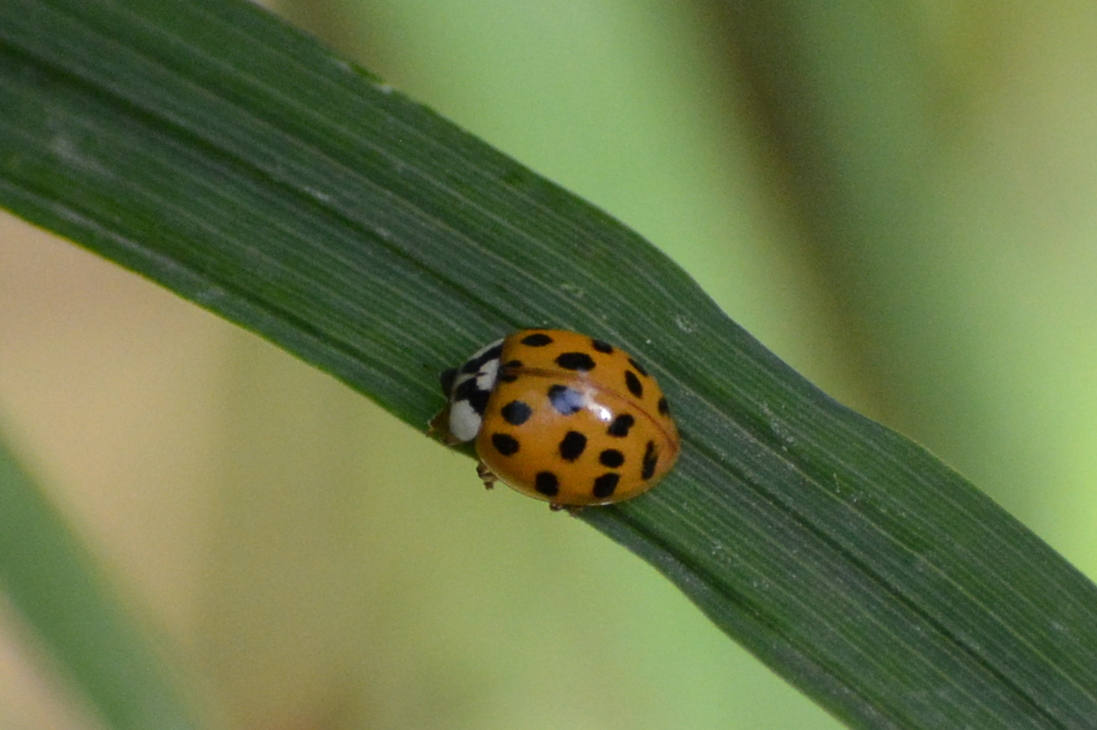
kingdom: Animalia
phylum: Arthropoda
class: Insecta
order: Coleoptera
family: Coccinellidae
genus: Harmonia
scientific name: Harmonia axyridis
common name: Harlequin ladybird
